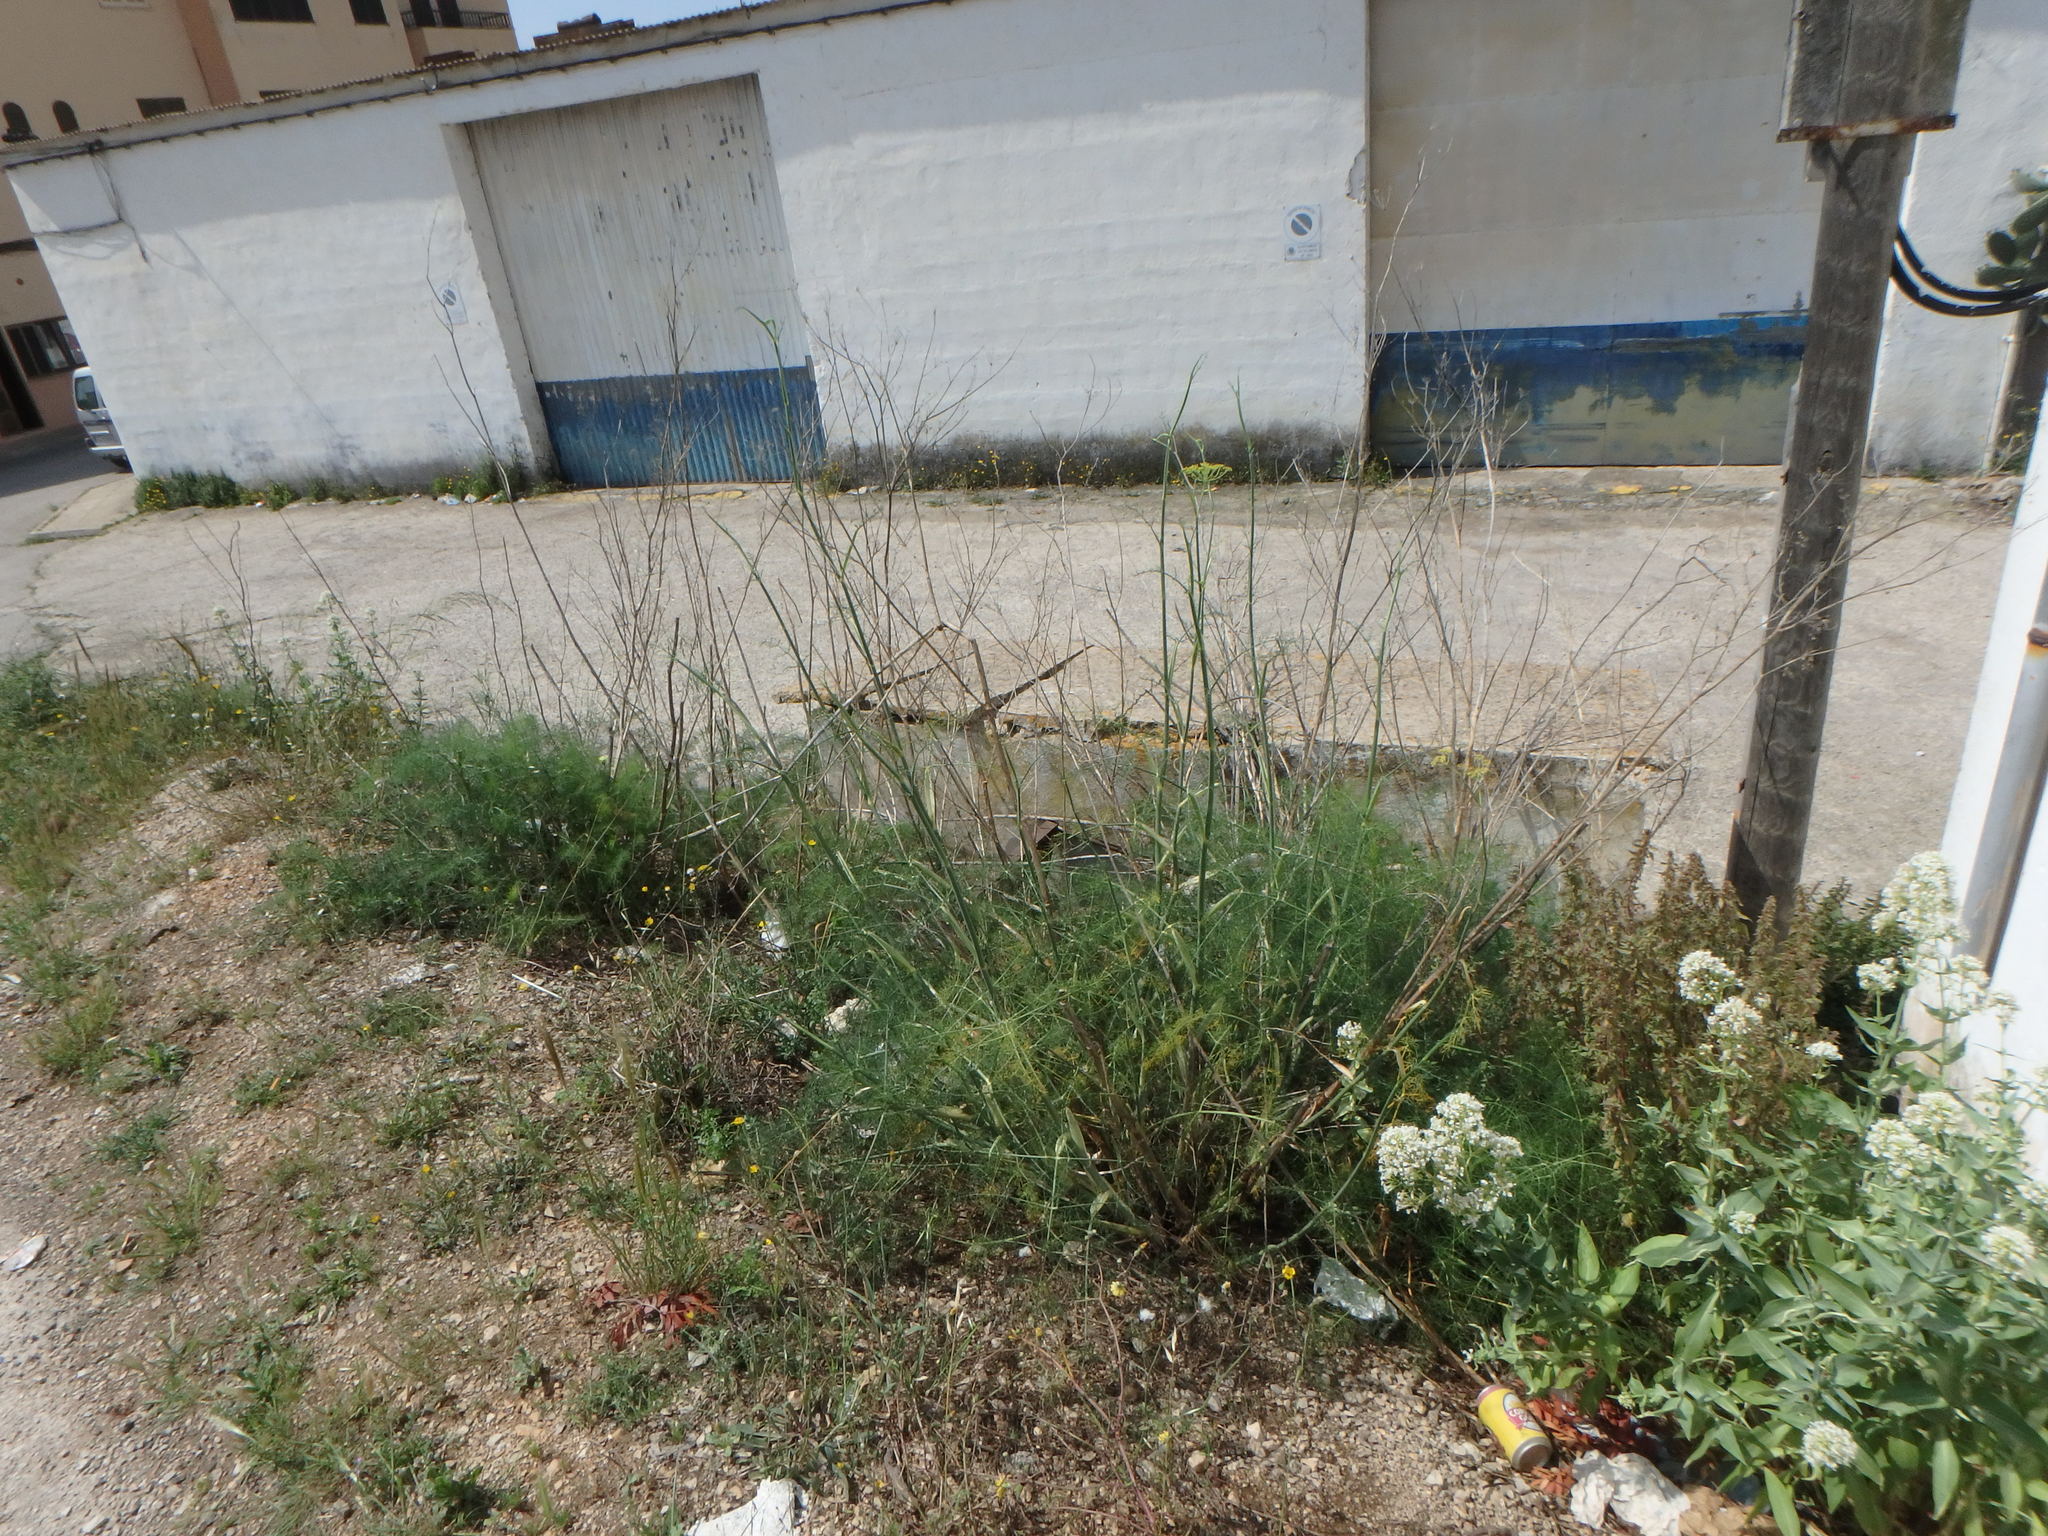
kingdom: Plantae
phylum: Tracheophyta
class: Magnoliopsida
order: Apiales
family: Apiaceae
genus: Foeniculum
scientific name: Foeniculum vulgare
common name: Fennel
